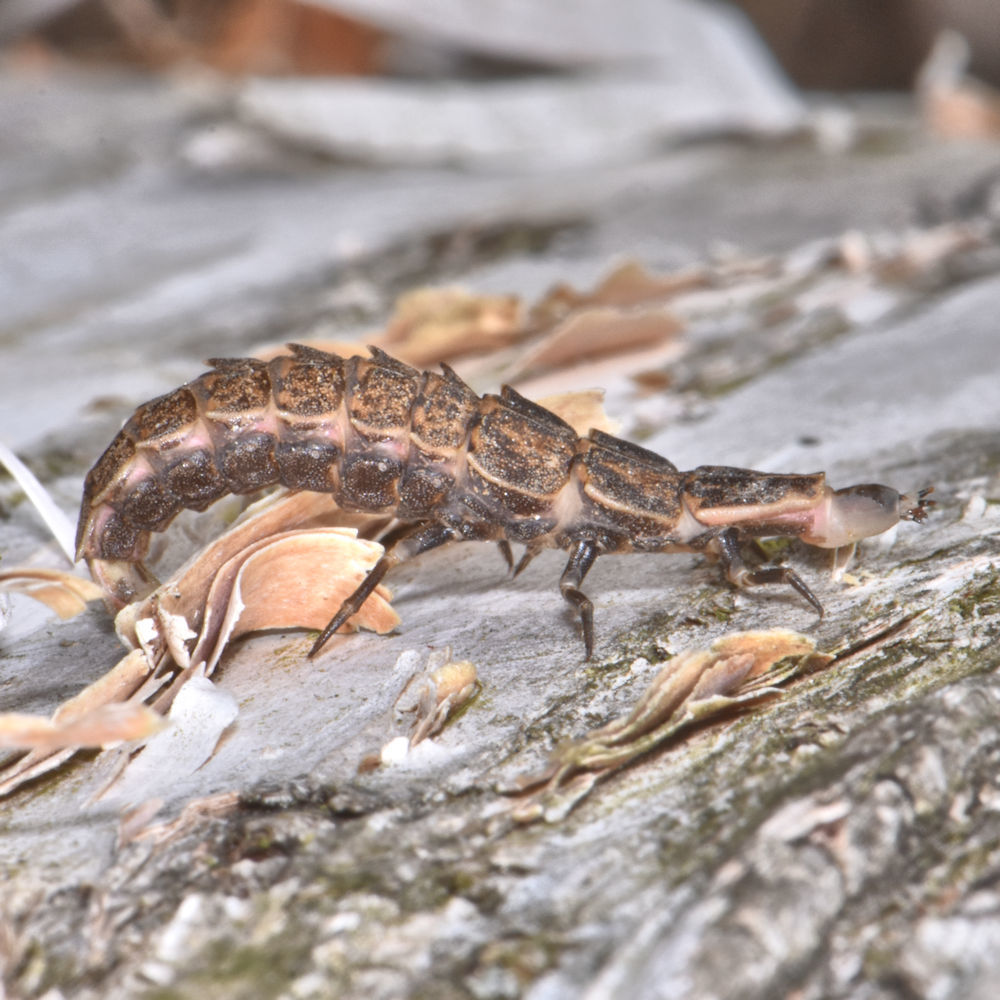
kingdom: Animalia
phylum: Arthropoda
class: Insecta
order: Coleoptera
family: Lampyridae
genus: Pyractomena
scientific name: Pyractomena borealis
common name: Northern firefly
